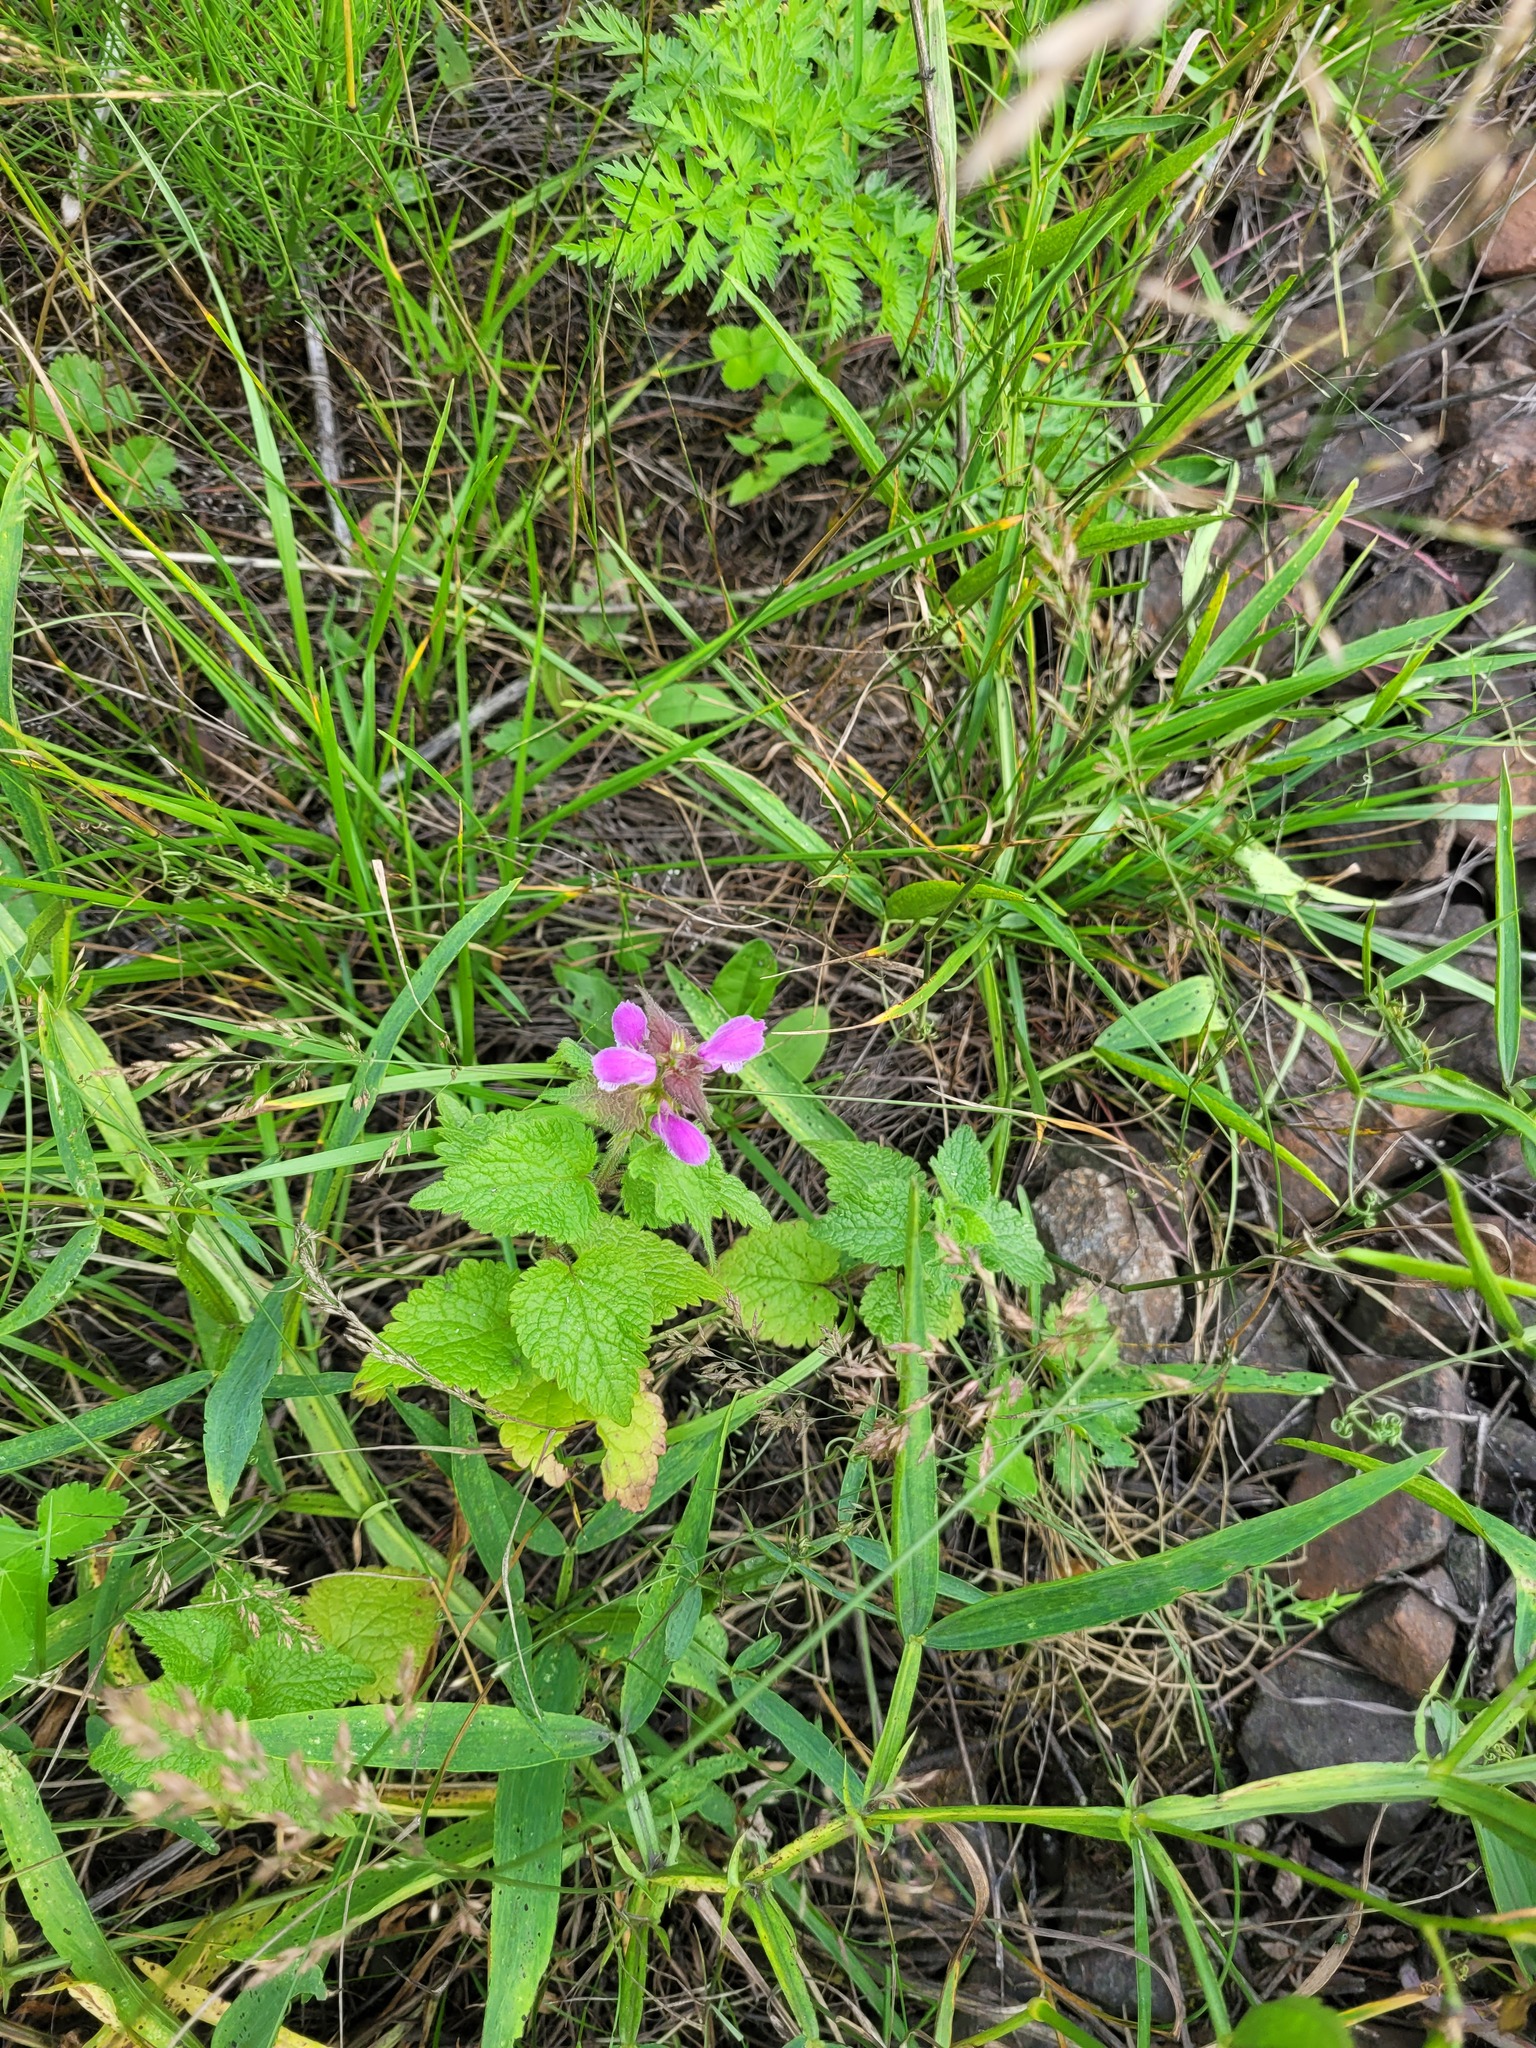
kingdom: Plantae
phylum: Tracheophyta
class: Magnoliopsida
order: Lamiales
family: Lamiaceae
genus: Lamium
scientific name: Lamium maculatum
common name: Spotted dead-nettle
